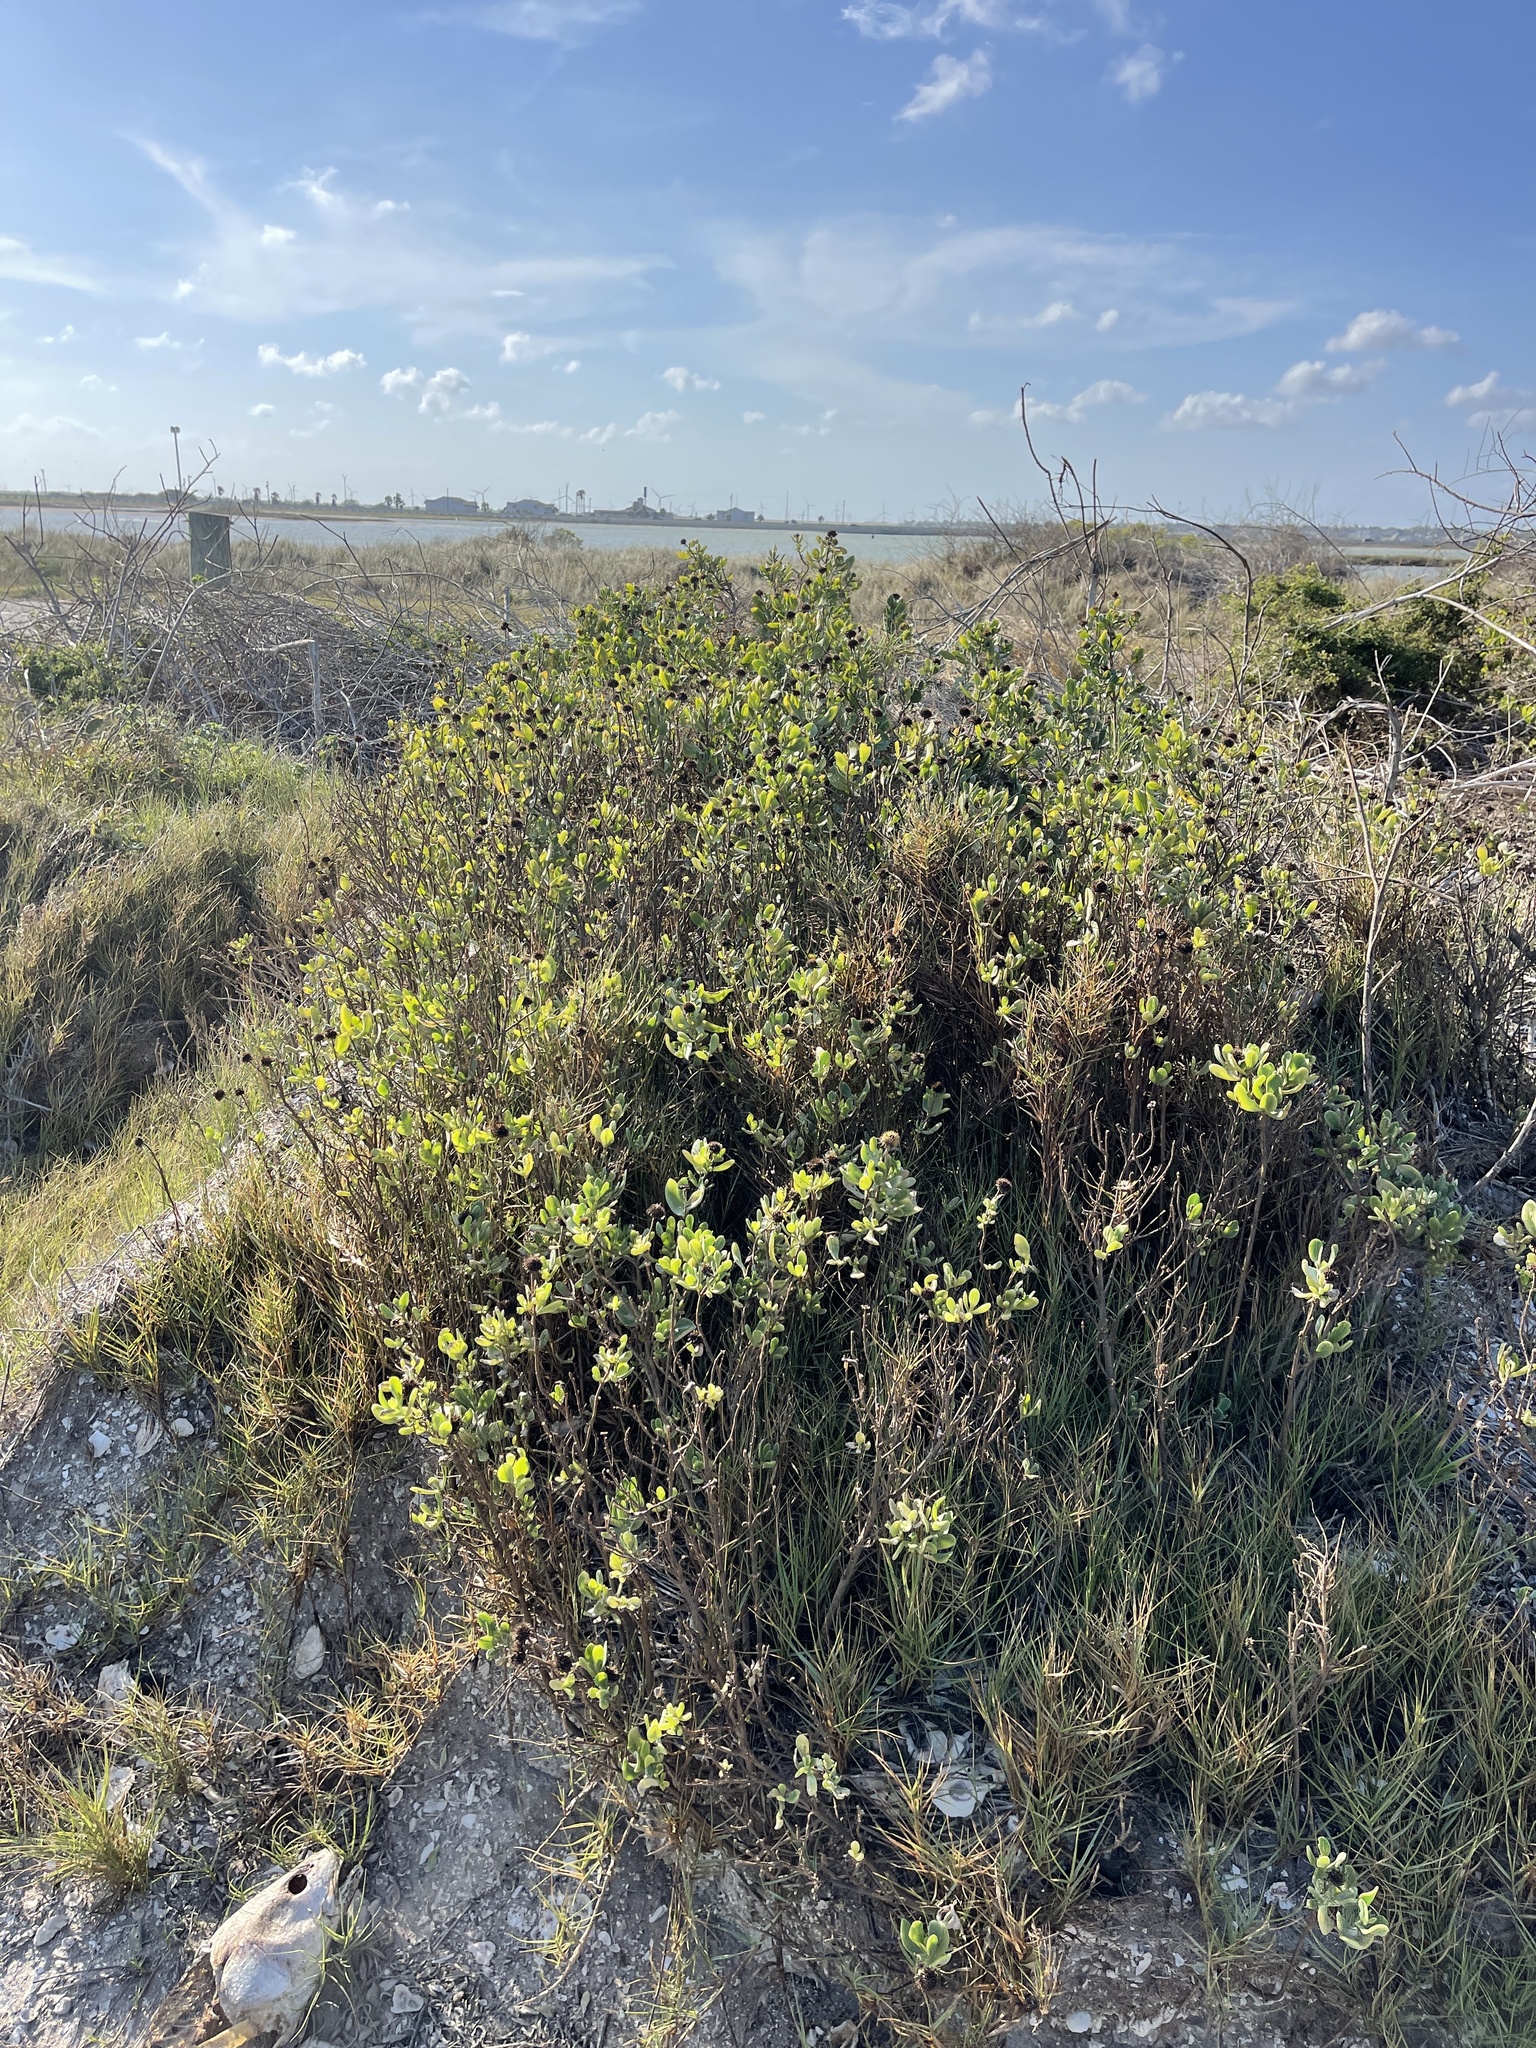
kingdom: Plantae
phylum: Tracheophyta
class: Magnoliopsida
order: Asterales
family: Asteraceae
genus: Borrichia
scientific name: Borrichia frutescens
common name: Sea oxeye
